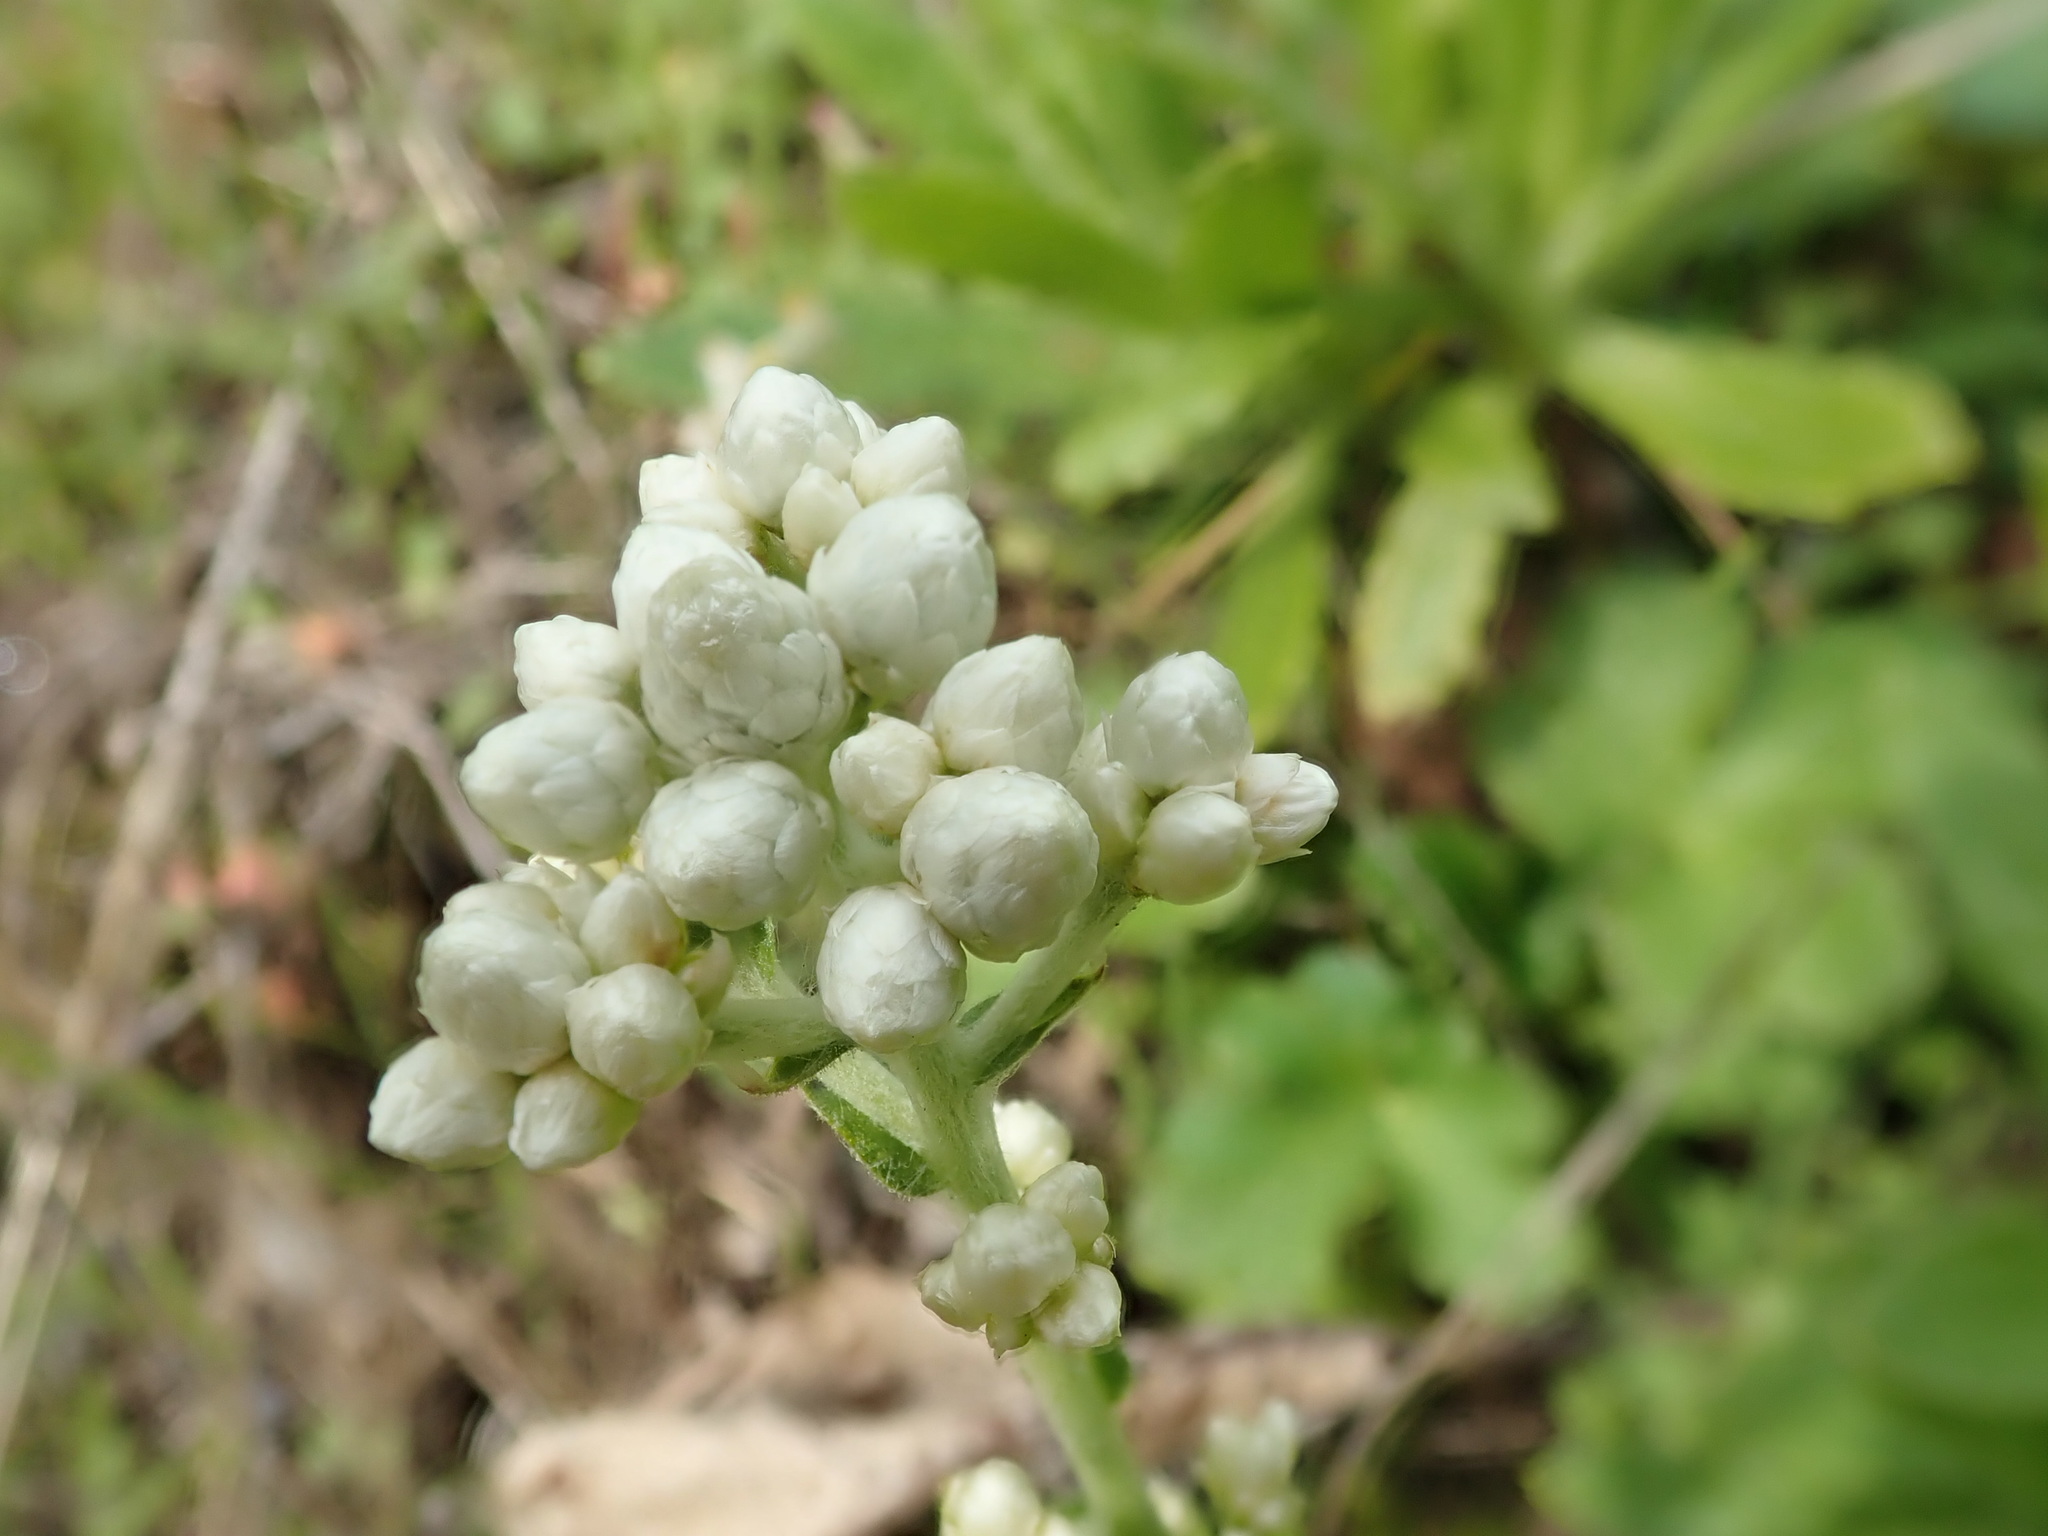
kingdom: Plantae
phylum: Tracheophyta
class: Magnoliopsida
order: Asterales
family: Asteraceae
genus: Pseudognaphalium
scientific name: Pseudognaphalium californicum
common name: California rabbit-tobacco
